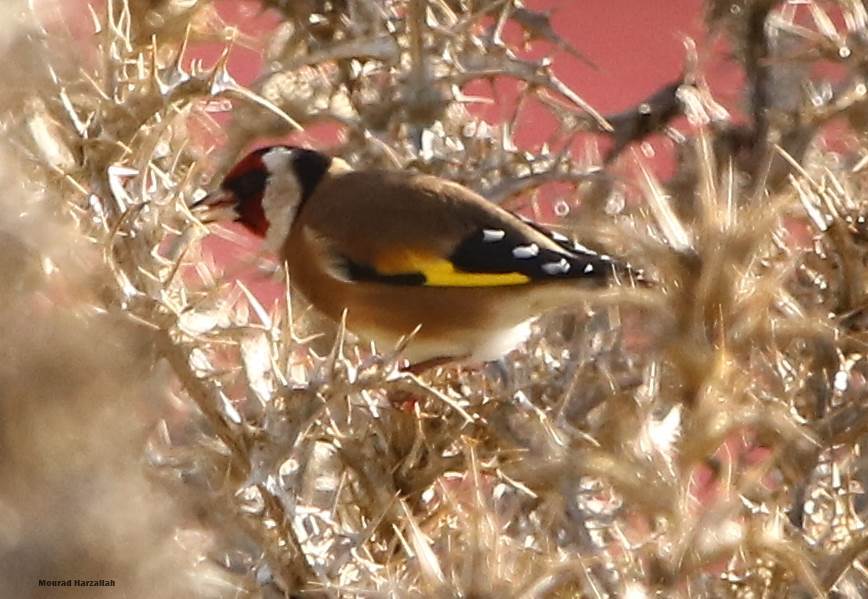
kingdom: Animalia
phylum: Chordata
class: Aves
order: Passeriformes
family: Fringillidae
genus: Carduelis
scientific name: Carduelis carduelis
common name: European goldfinch
